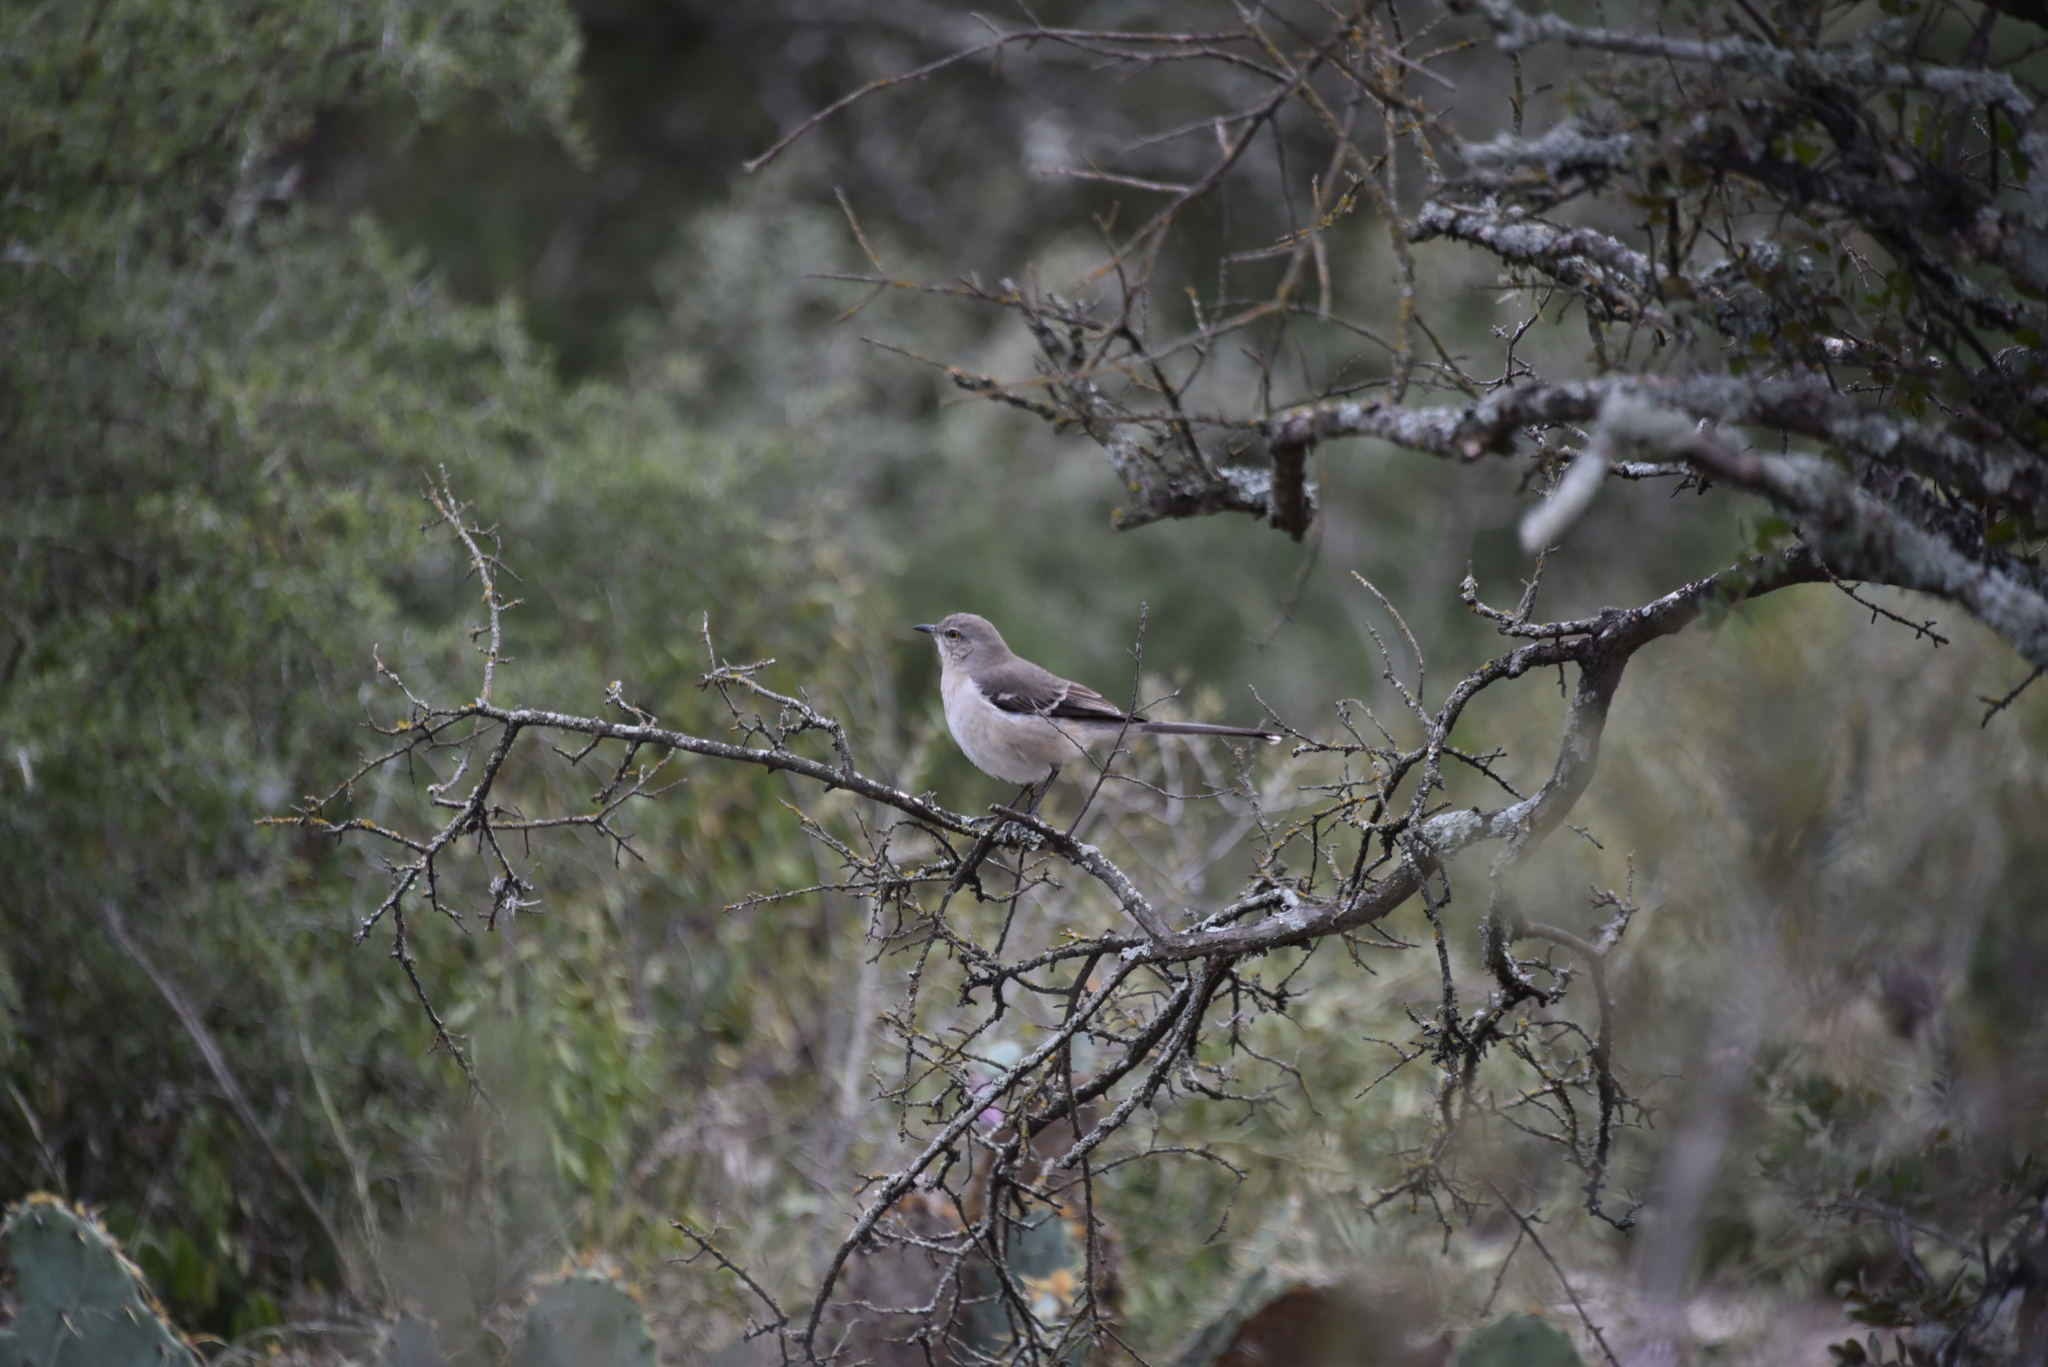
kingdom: Animalia
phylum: Chordata
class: Aves
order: Passeriformes
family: Mimidae
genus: Mimus
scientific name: Mimus polyglottos
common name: Northern mockingbird
